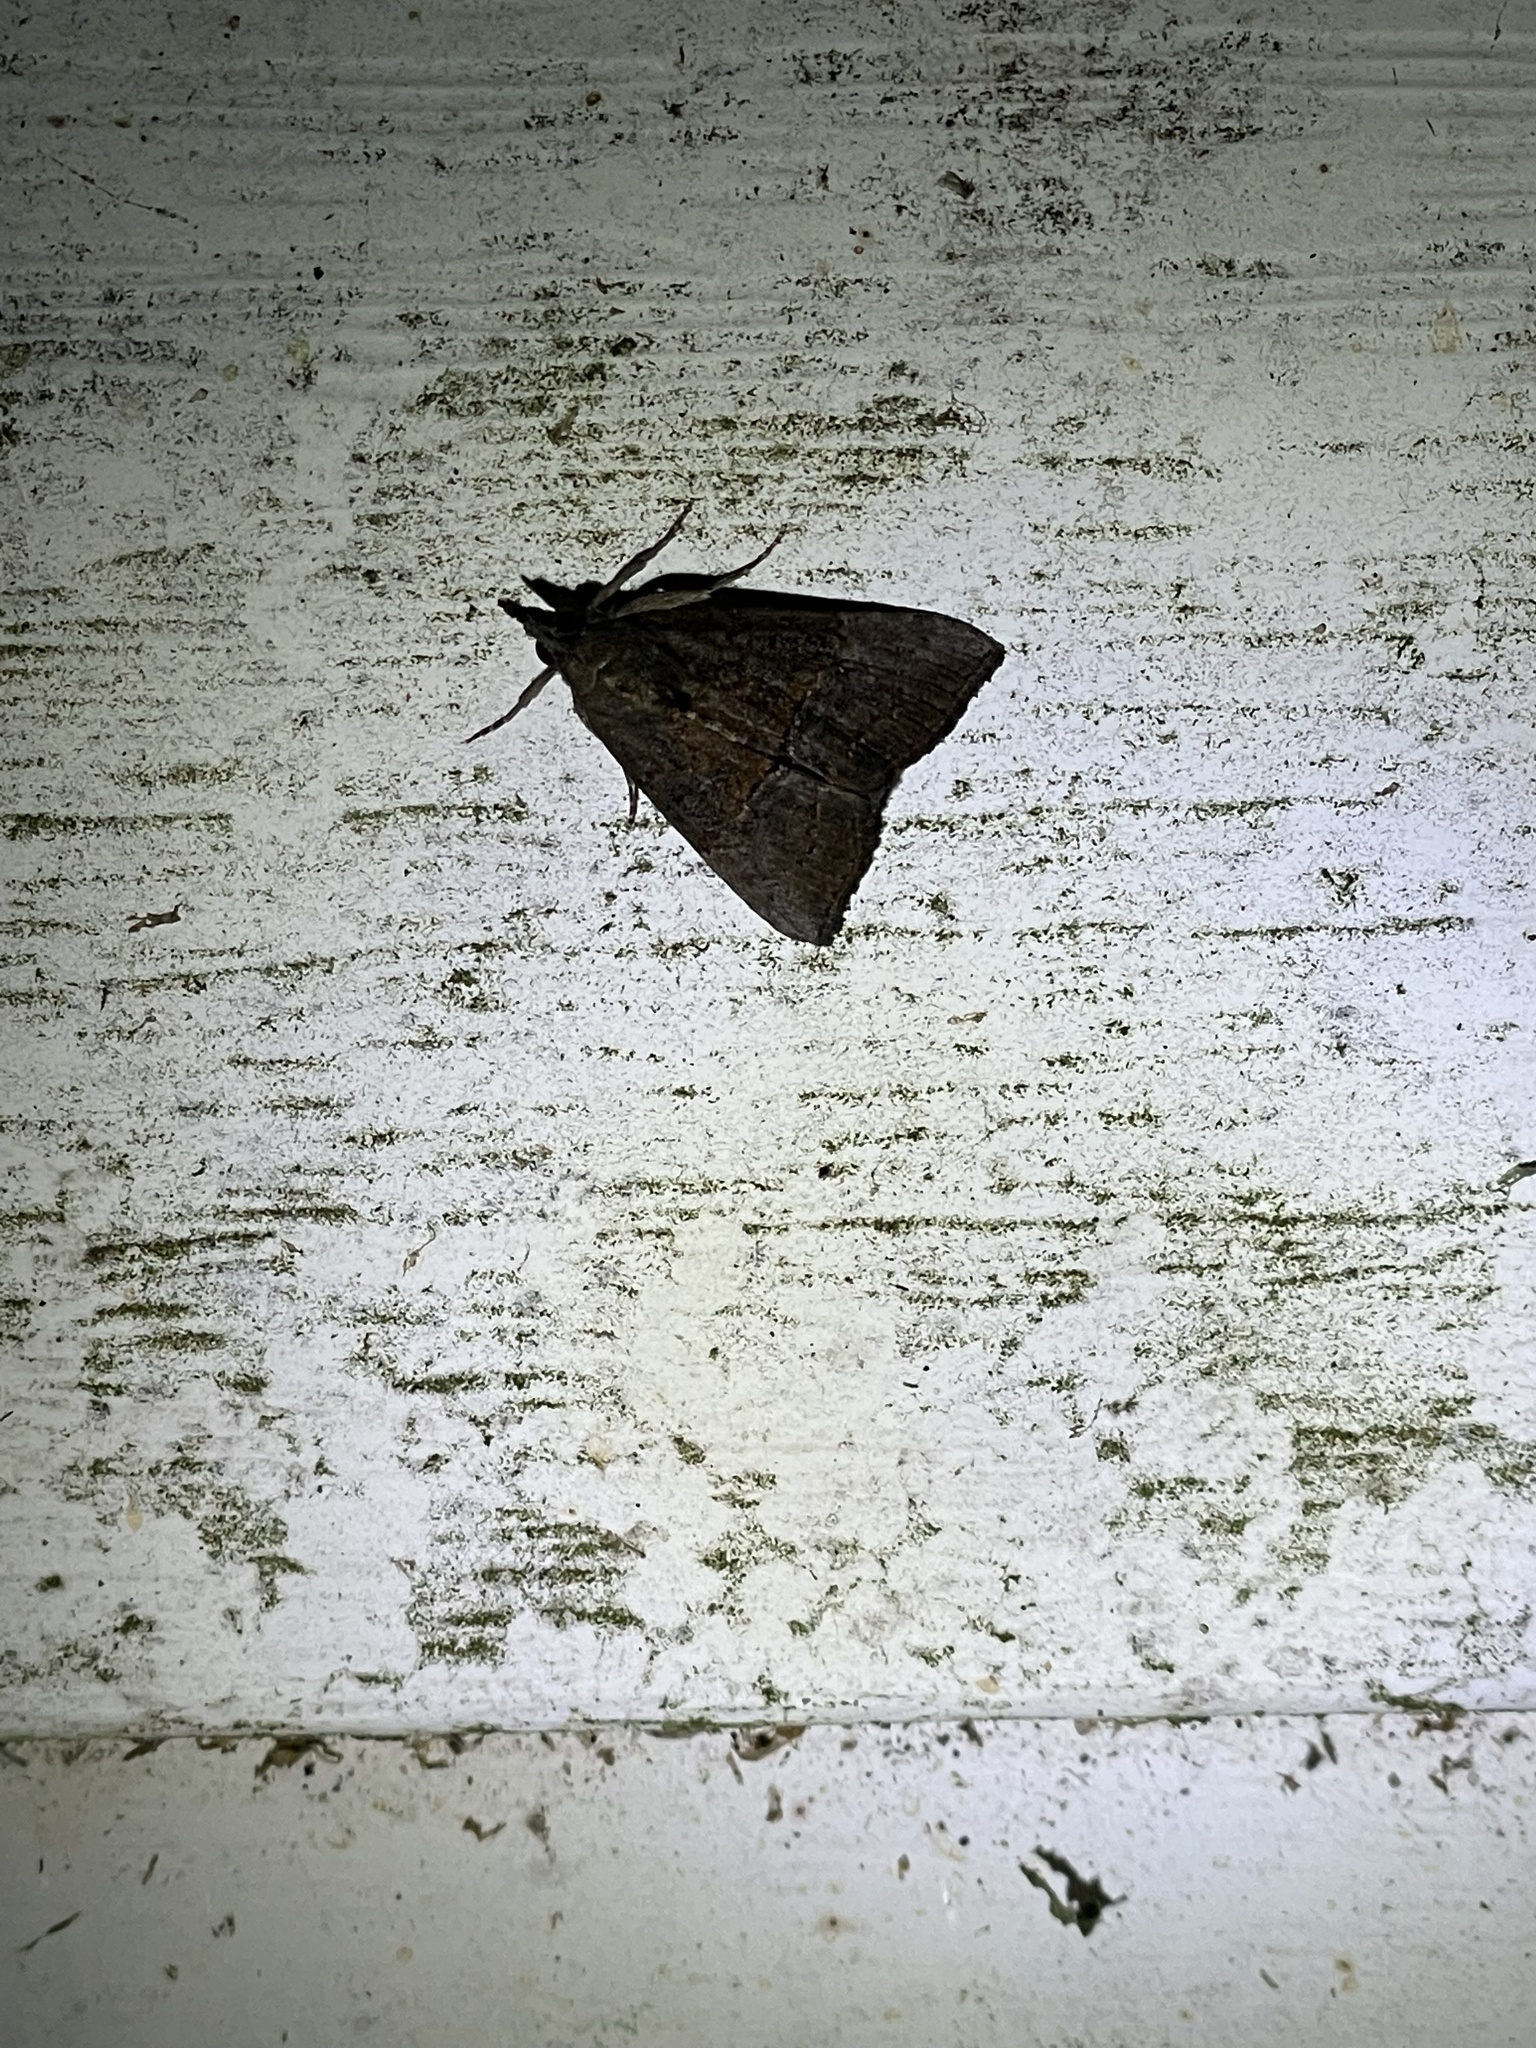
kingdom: Animalia
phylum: Arthropoda
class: Insecta
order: Lepidoptera
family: Erebidae
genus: Hypena
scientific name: Hypena scabra
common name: Green cloverworm
